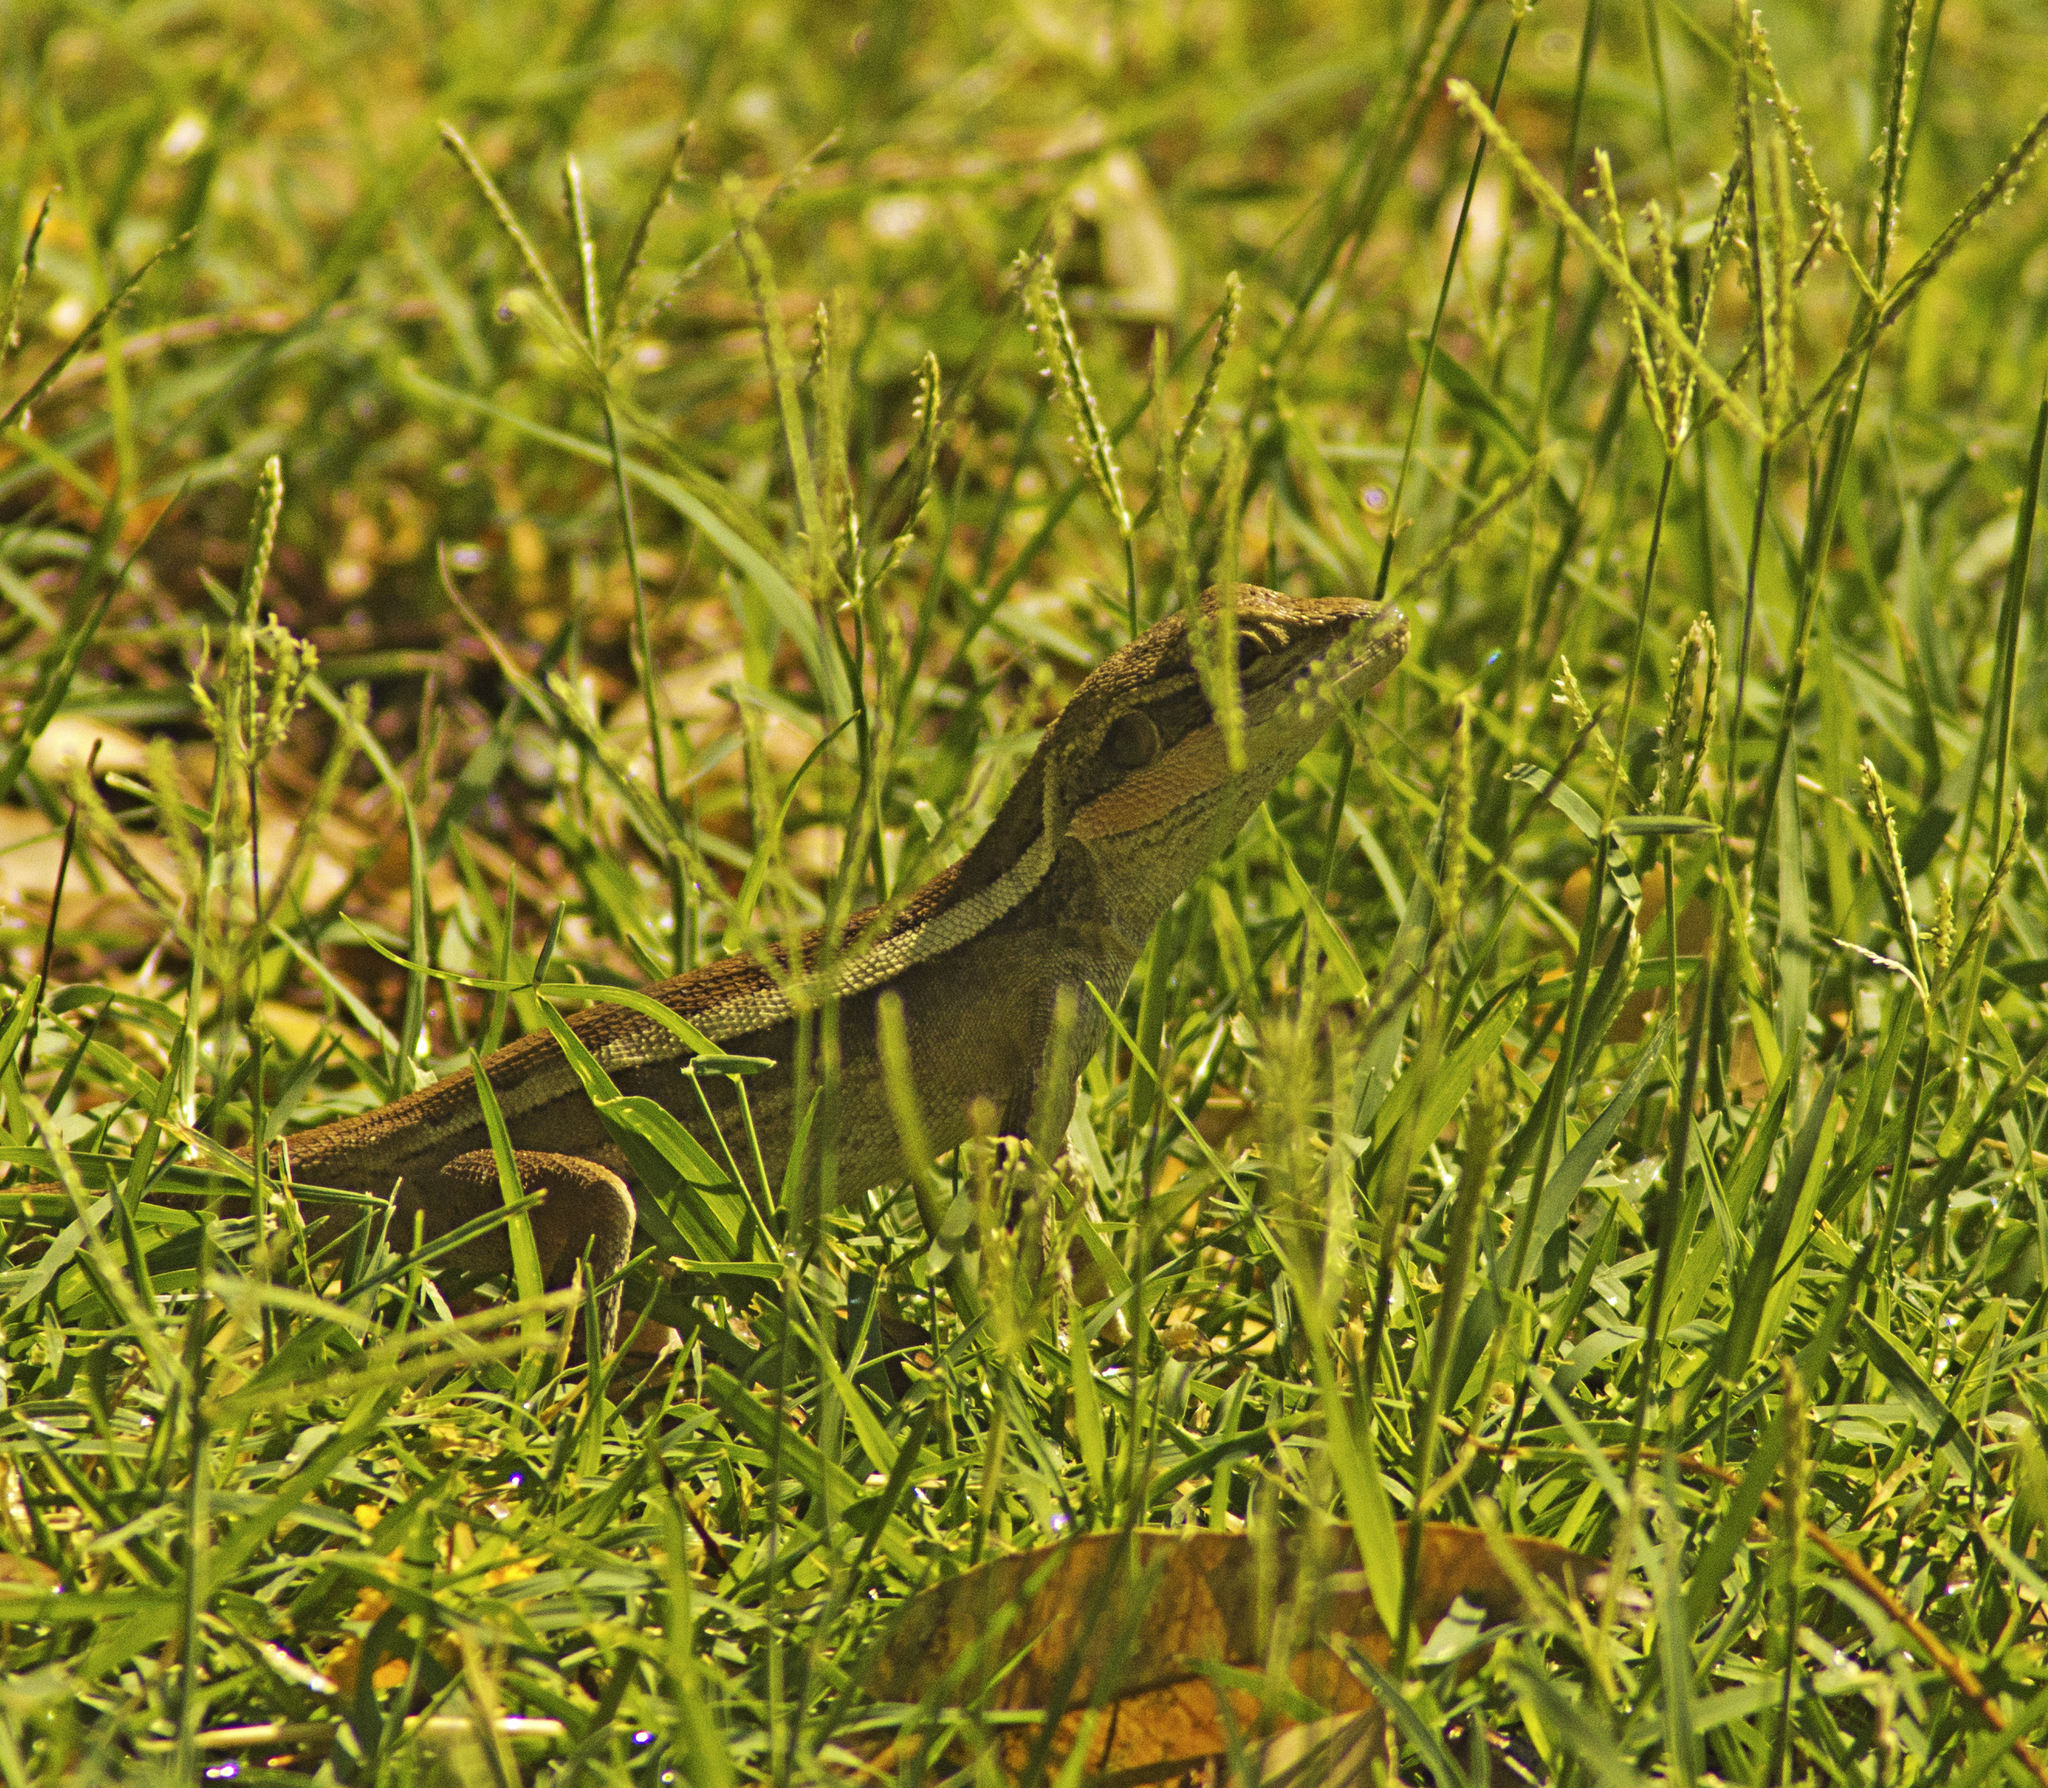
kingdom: Animalia
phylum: Chordata
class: Squamata
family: Agamidae
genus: Lophognathus
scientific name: Lophognathus horneri
